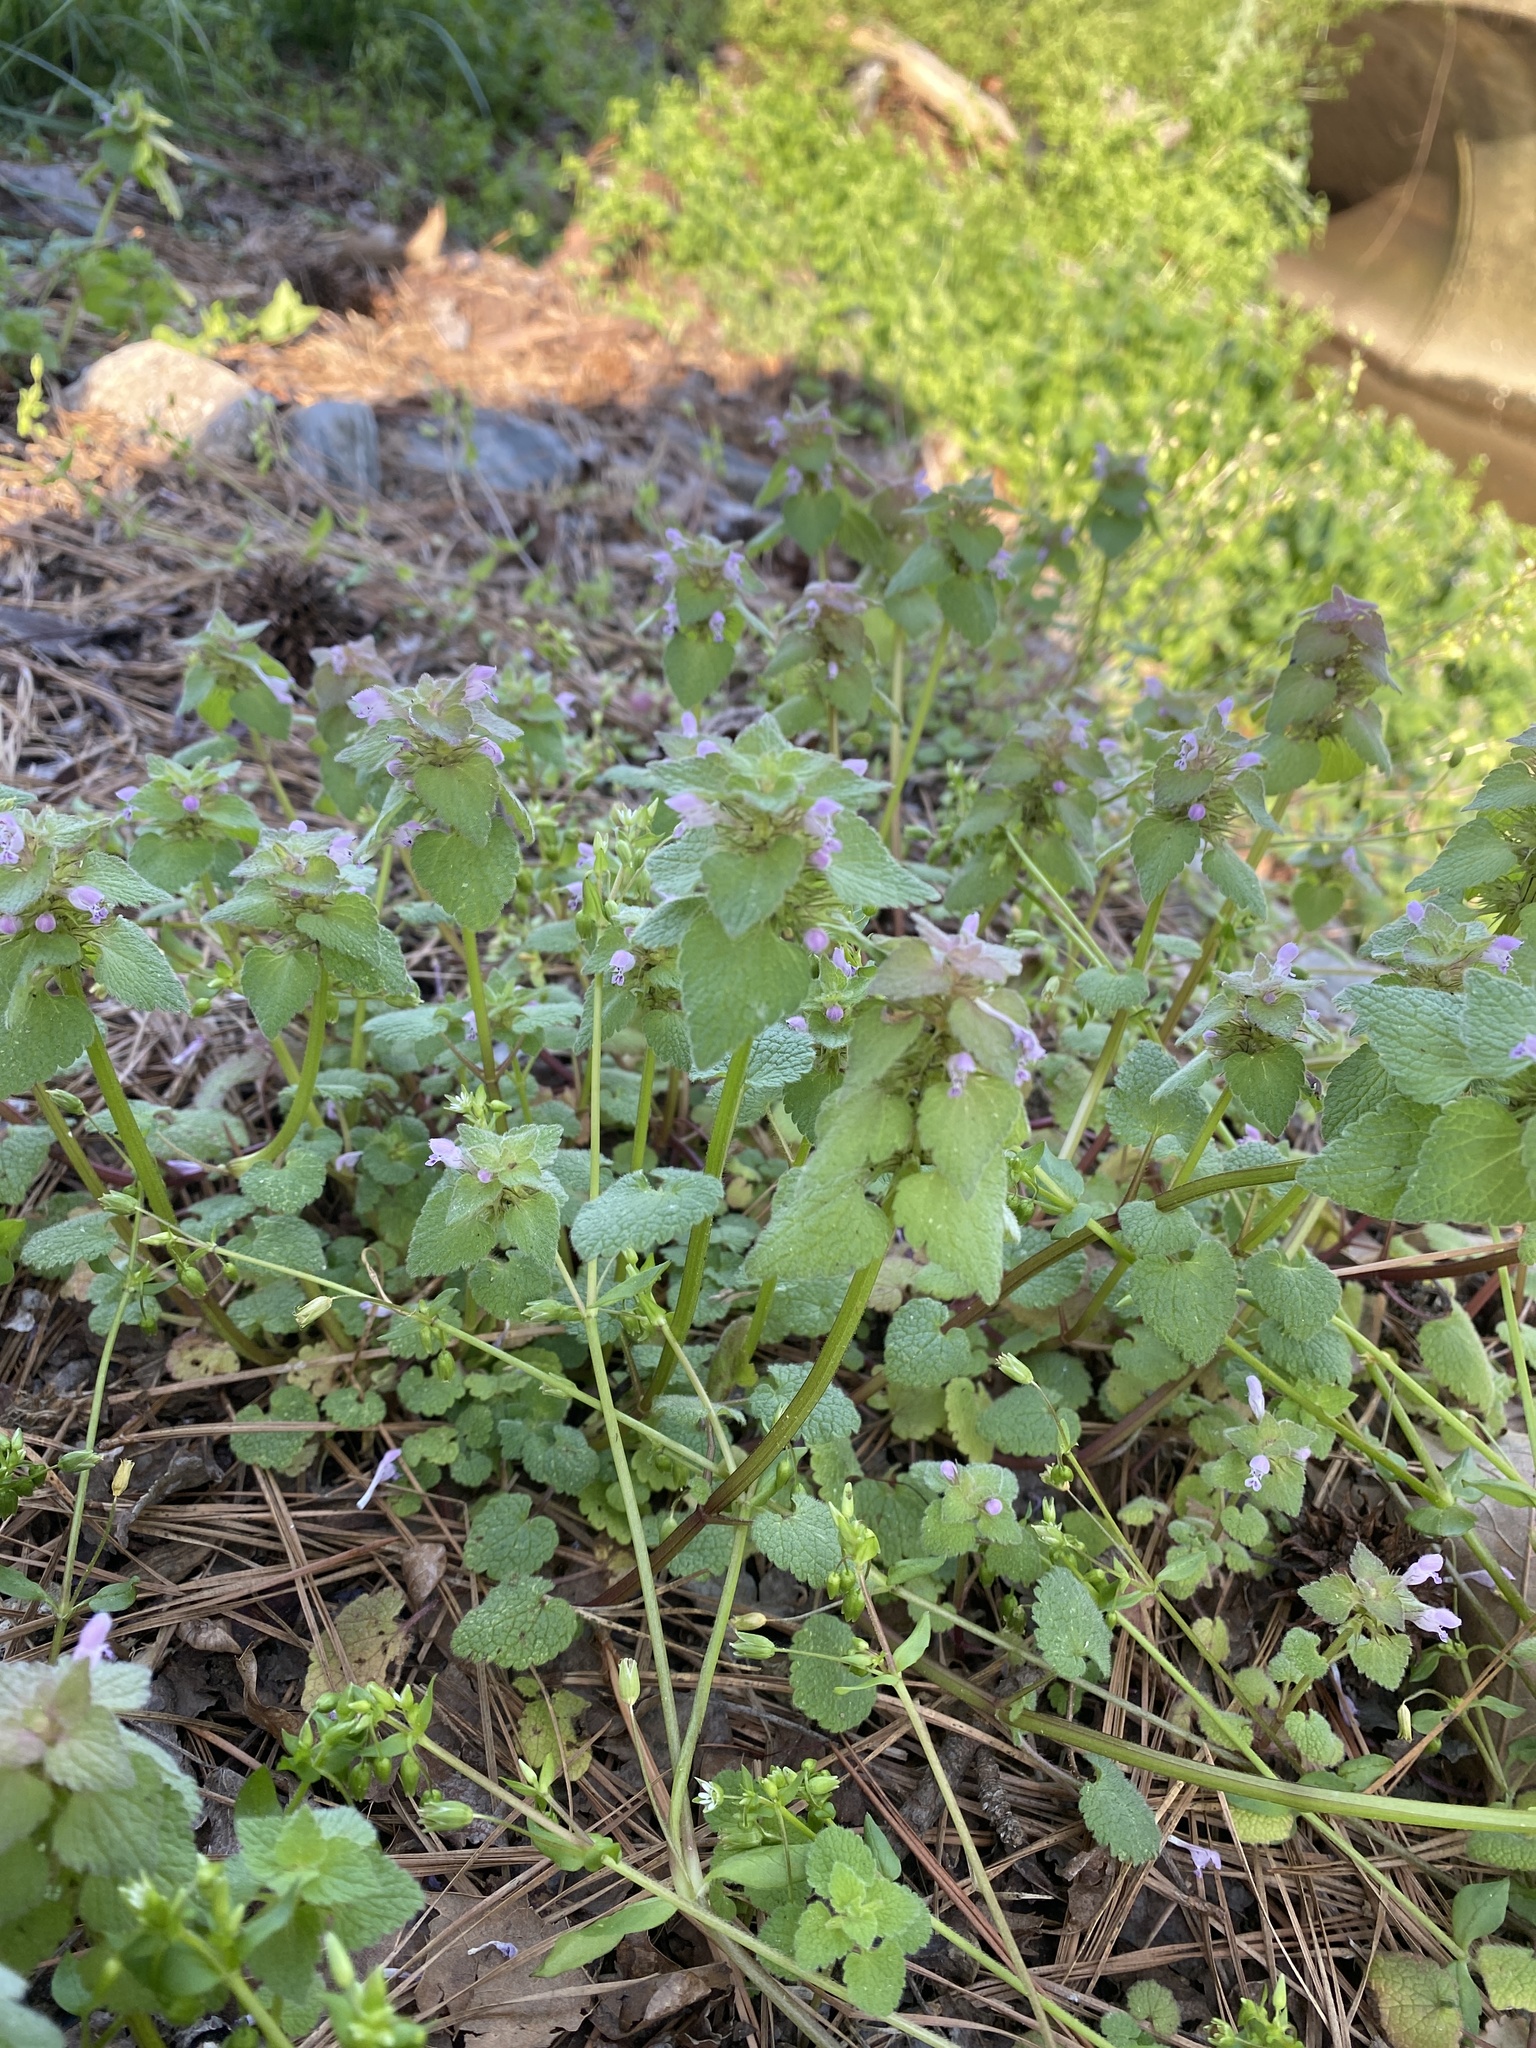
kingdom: Plantae
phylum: Tracheophyta
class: Magnoliopsida
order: Lamiales
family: Lamiaceae
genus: Lamium
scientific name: Lamium purpureum
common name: Red dead-nettle
